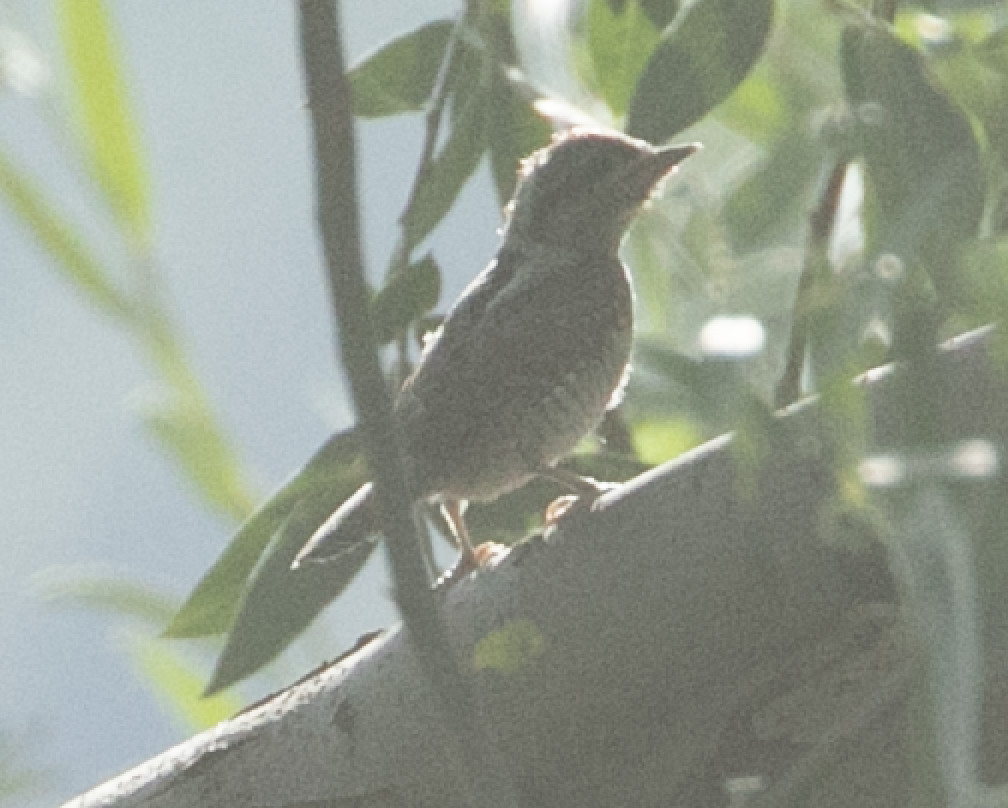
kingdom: Animalia
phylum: Chordata
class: Aves
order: Piciformes
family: Picidae
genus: Jynx
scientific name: Jynx torquilla
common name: Eurasian wryneck
